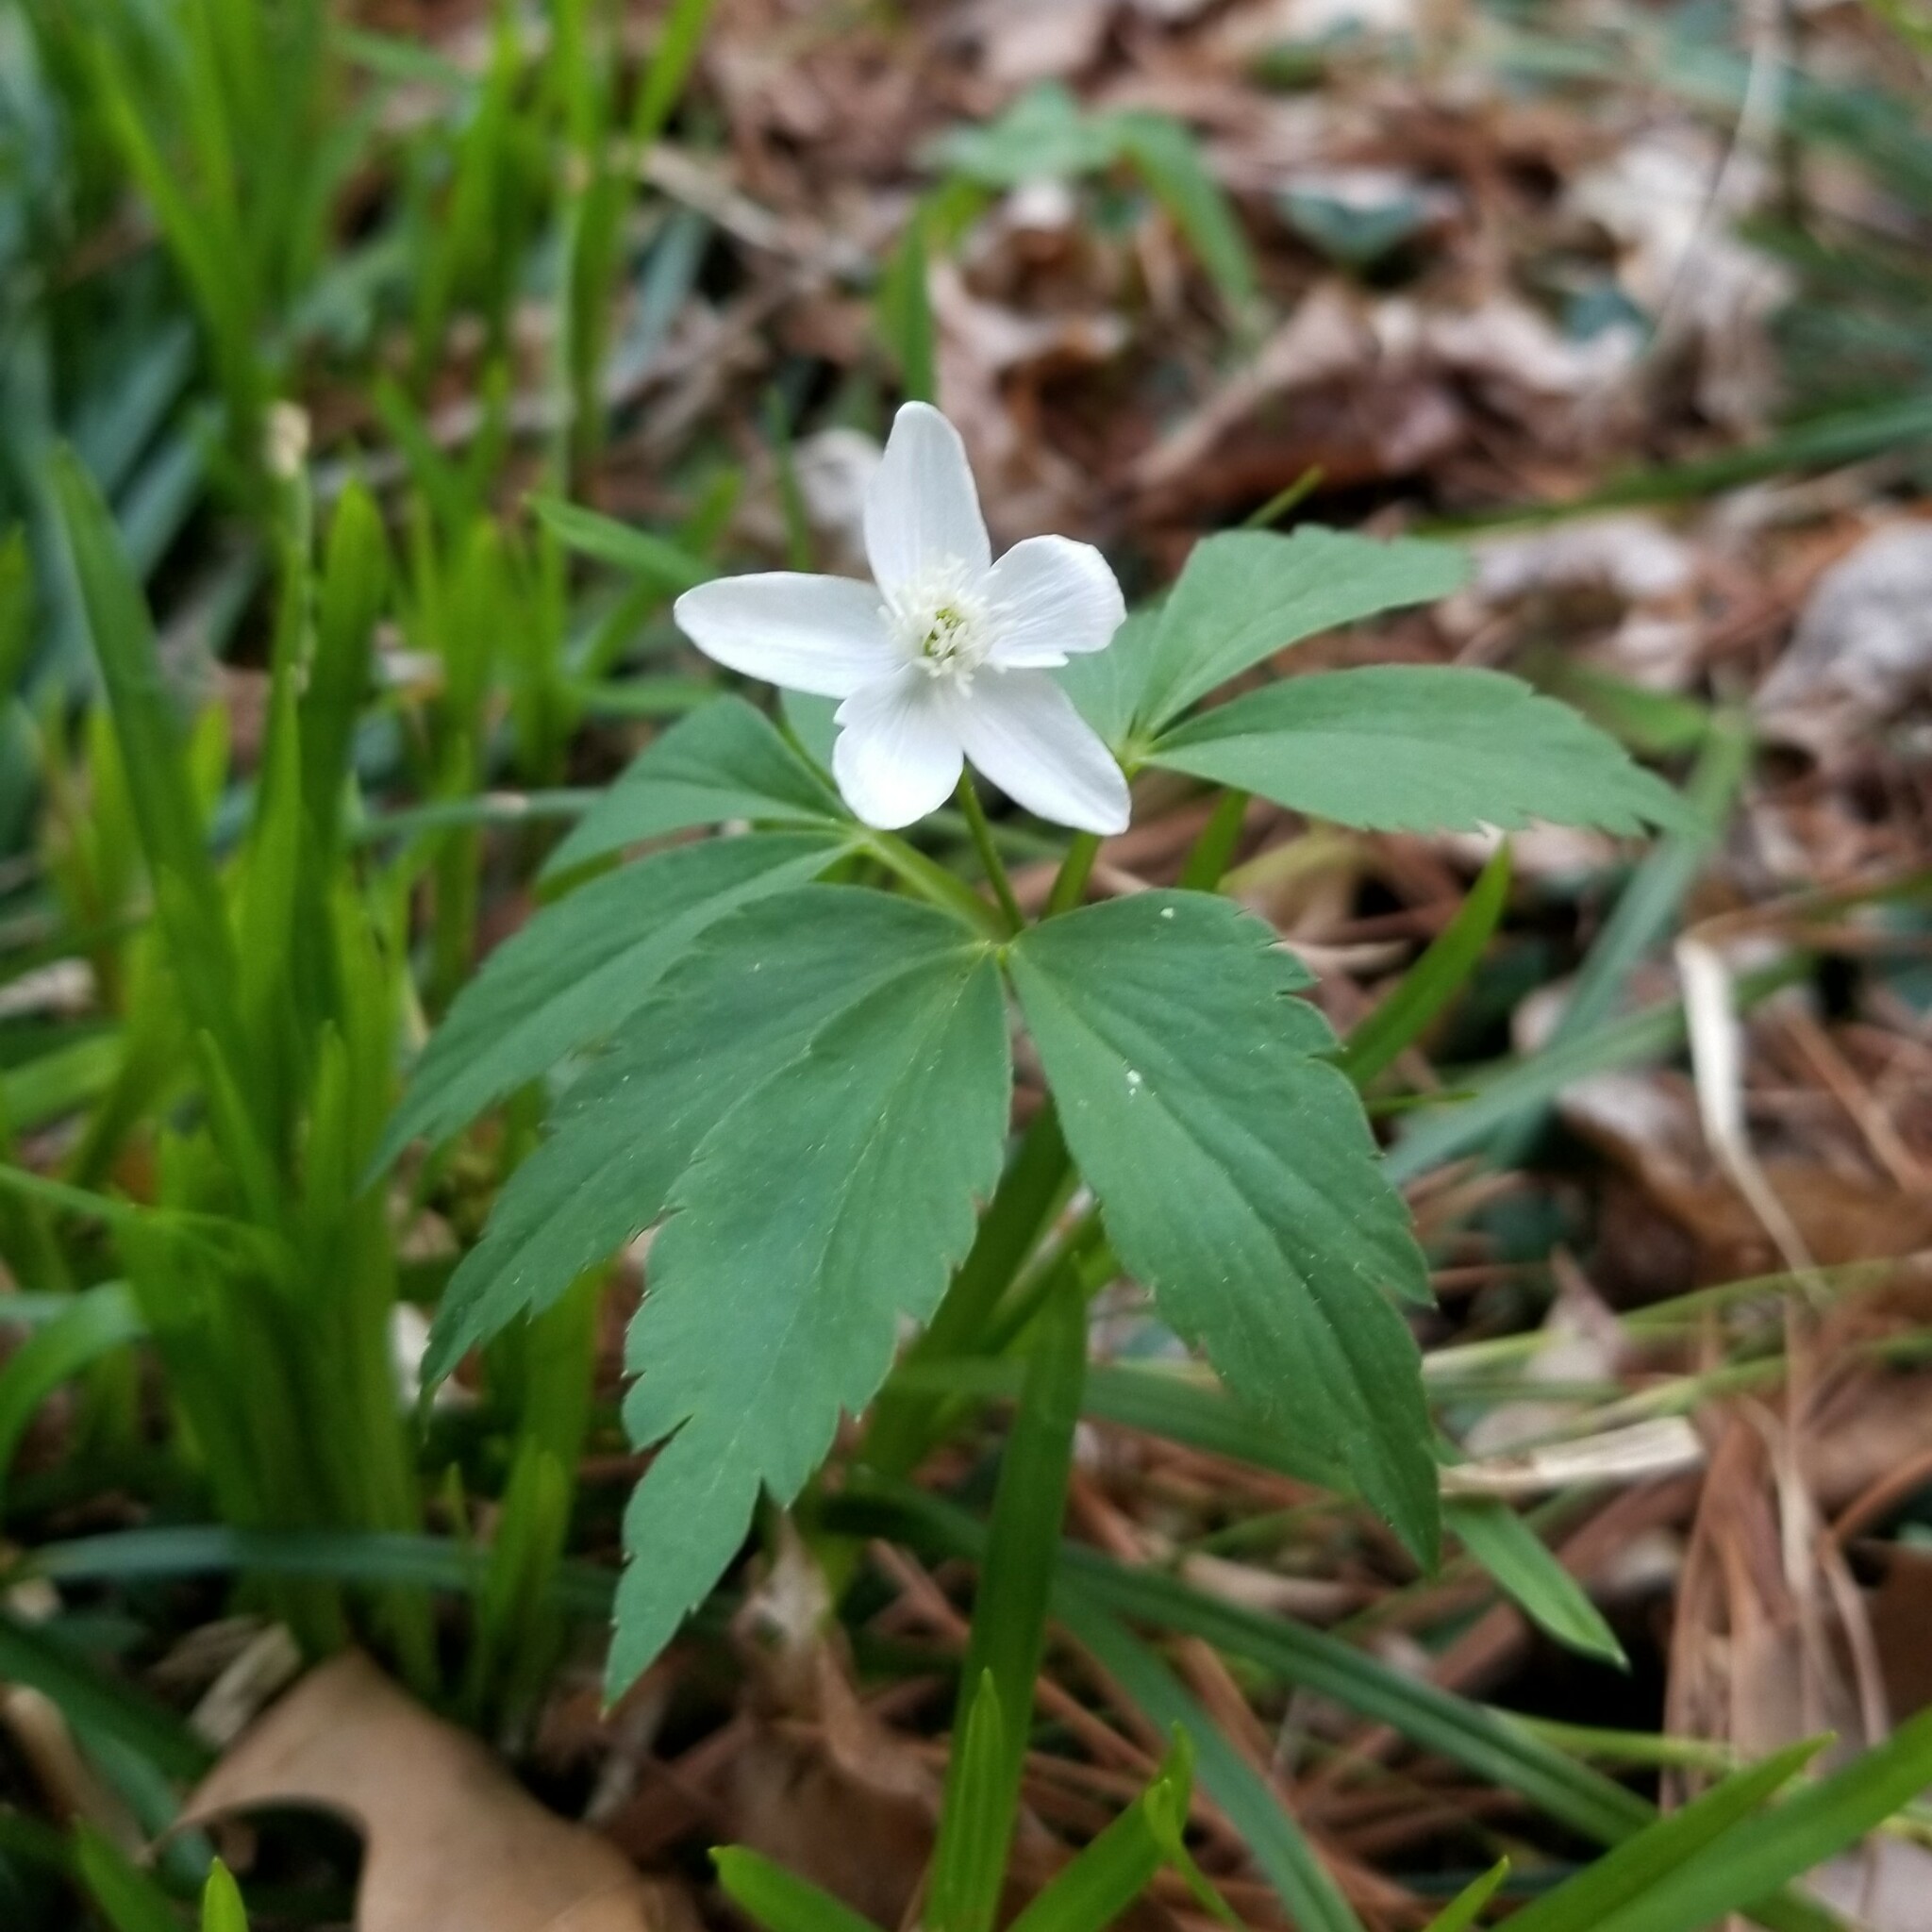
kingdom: Plantae
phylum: Tracheophyta
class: Magnoliopsida
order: Ranunculales
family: Ranunculaceae
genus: Anemone
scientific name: Anemone lancifolia
